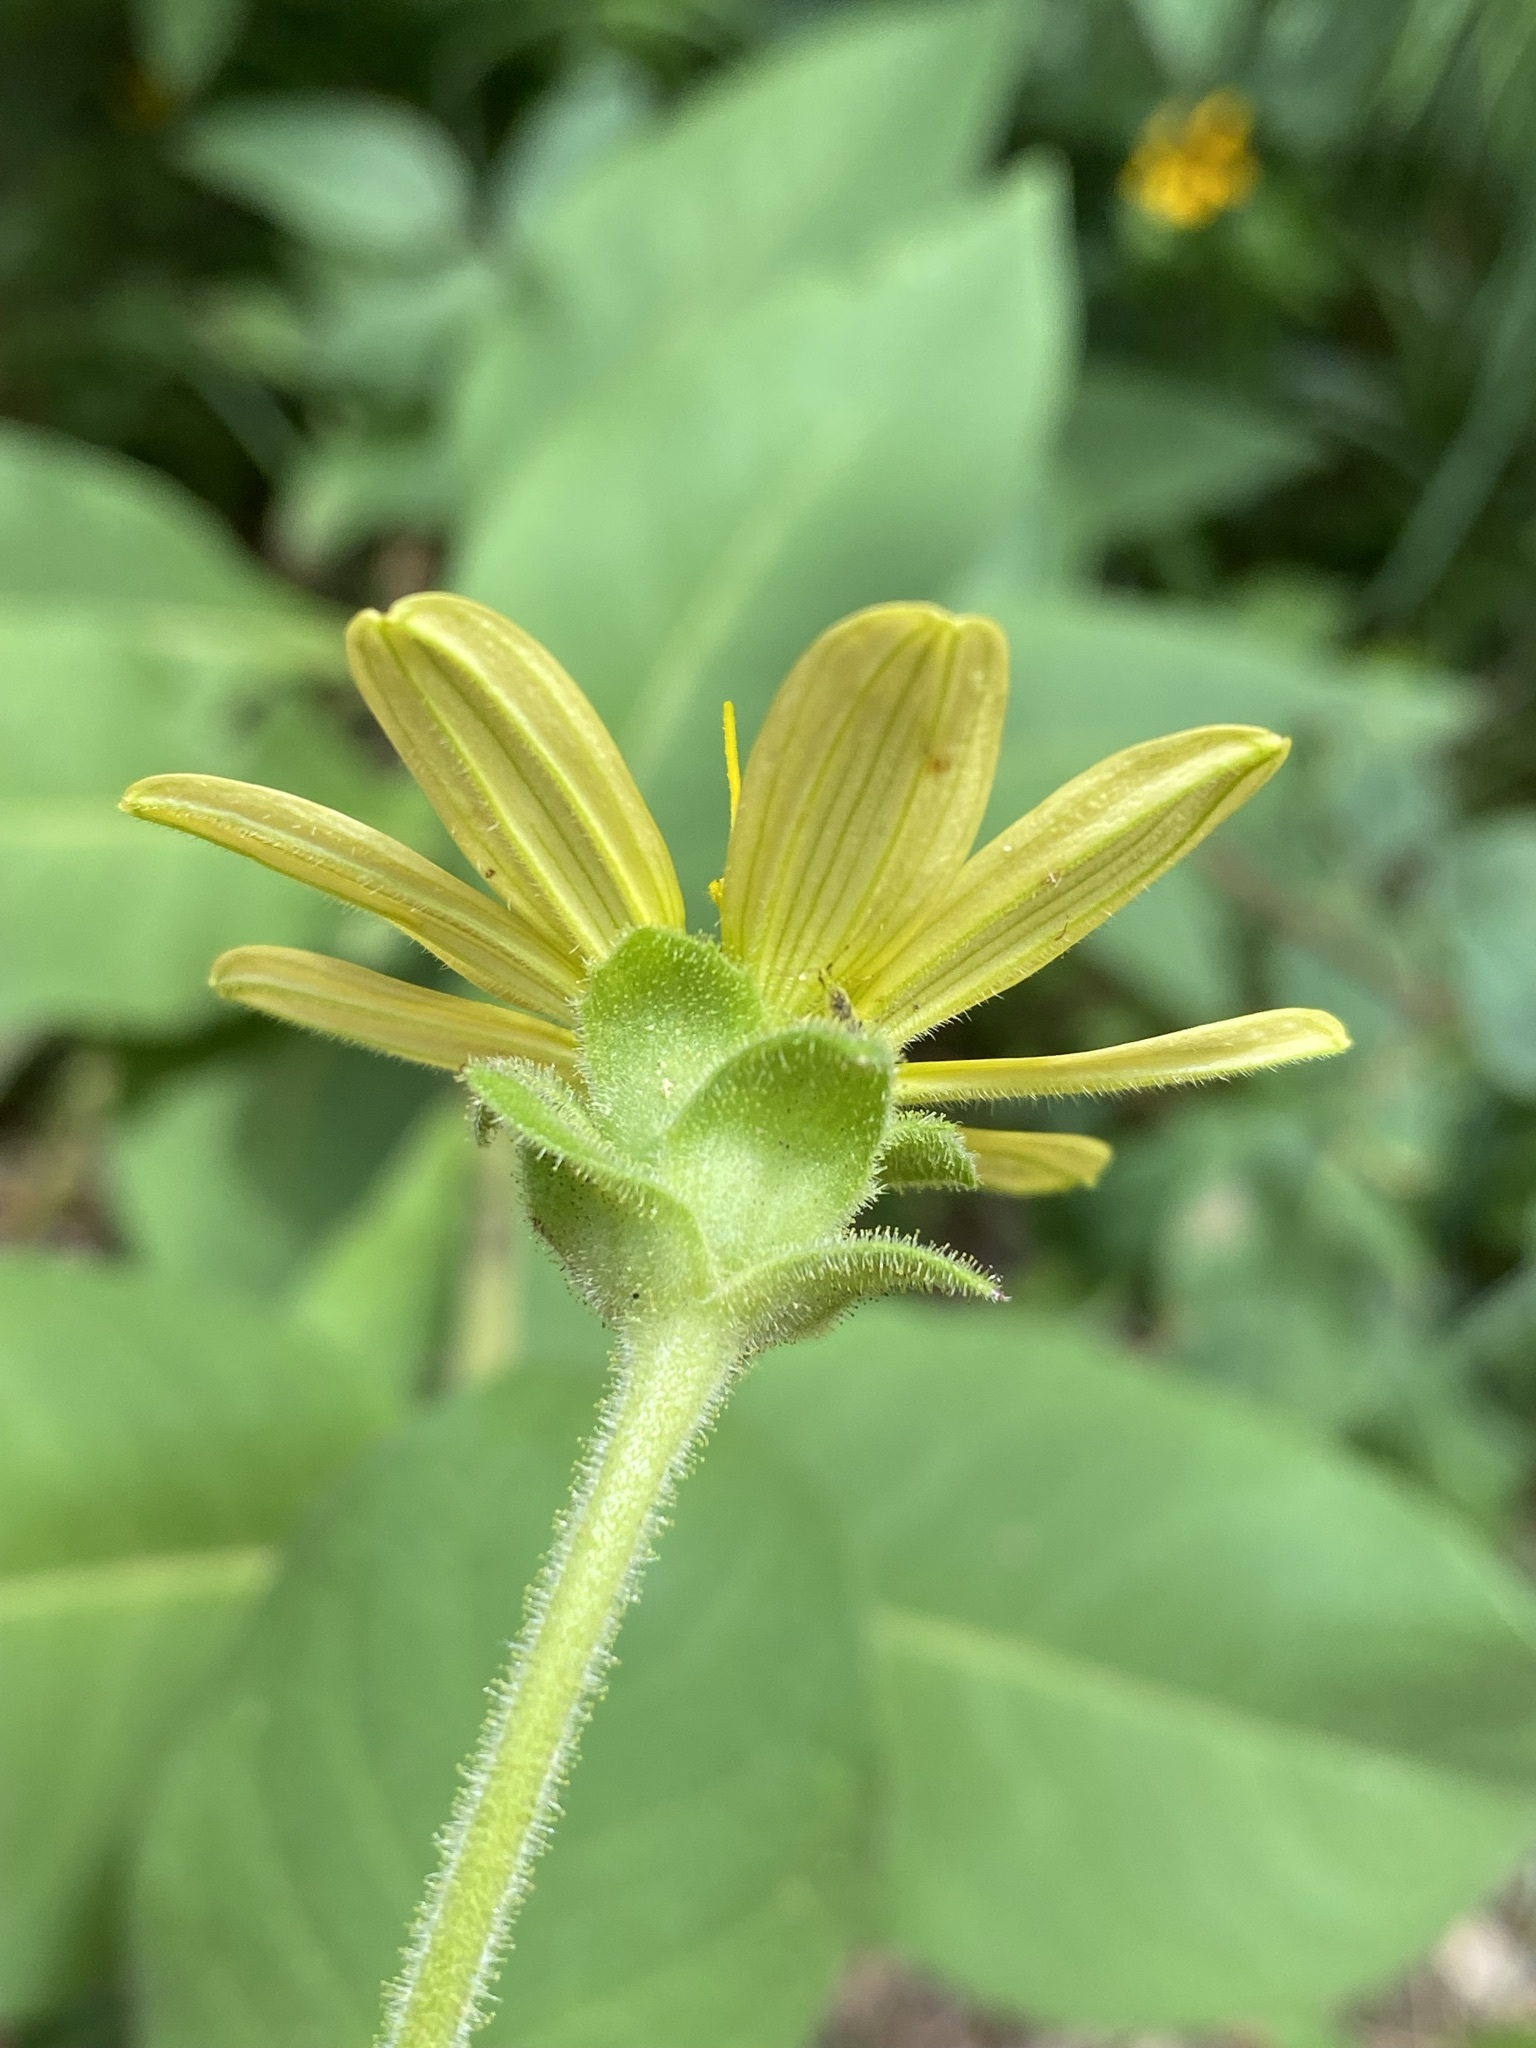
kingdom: Plantae
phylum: Tracheophyta
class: Magnoliopsida
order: Asterales
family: Asteraceae
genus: Silphium
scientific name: Silphium glutinosum
